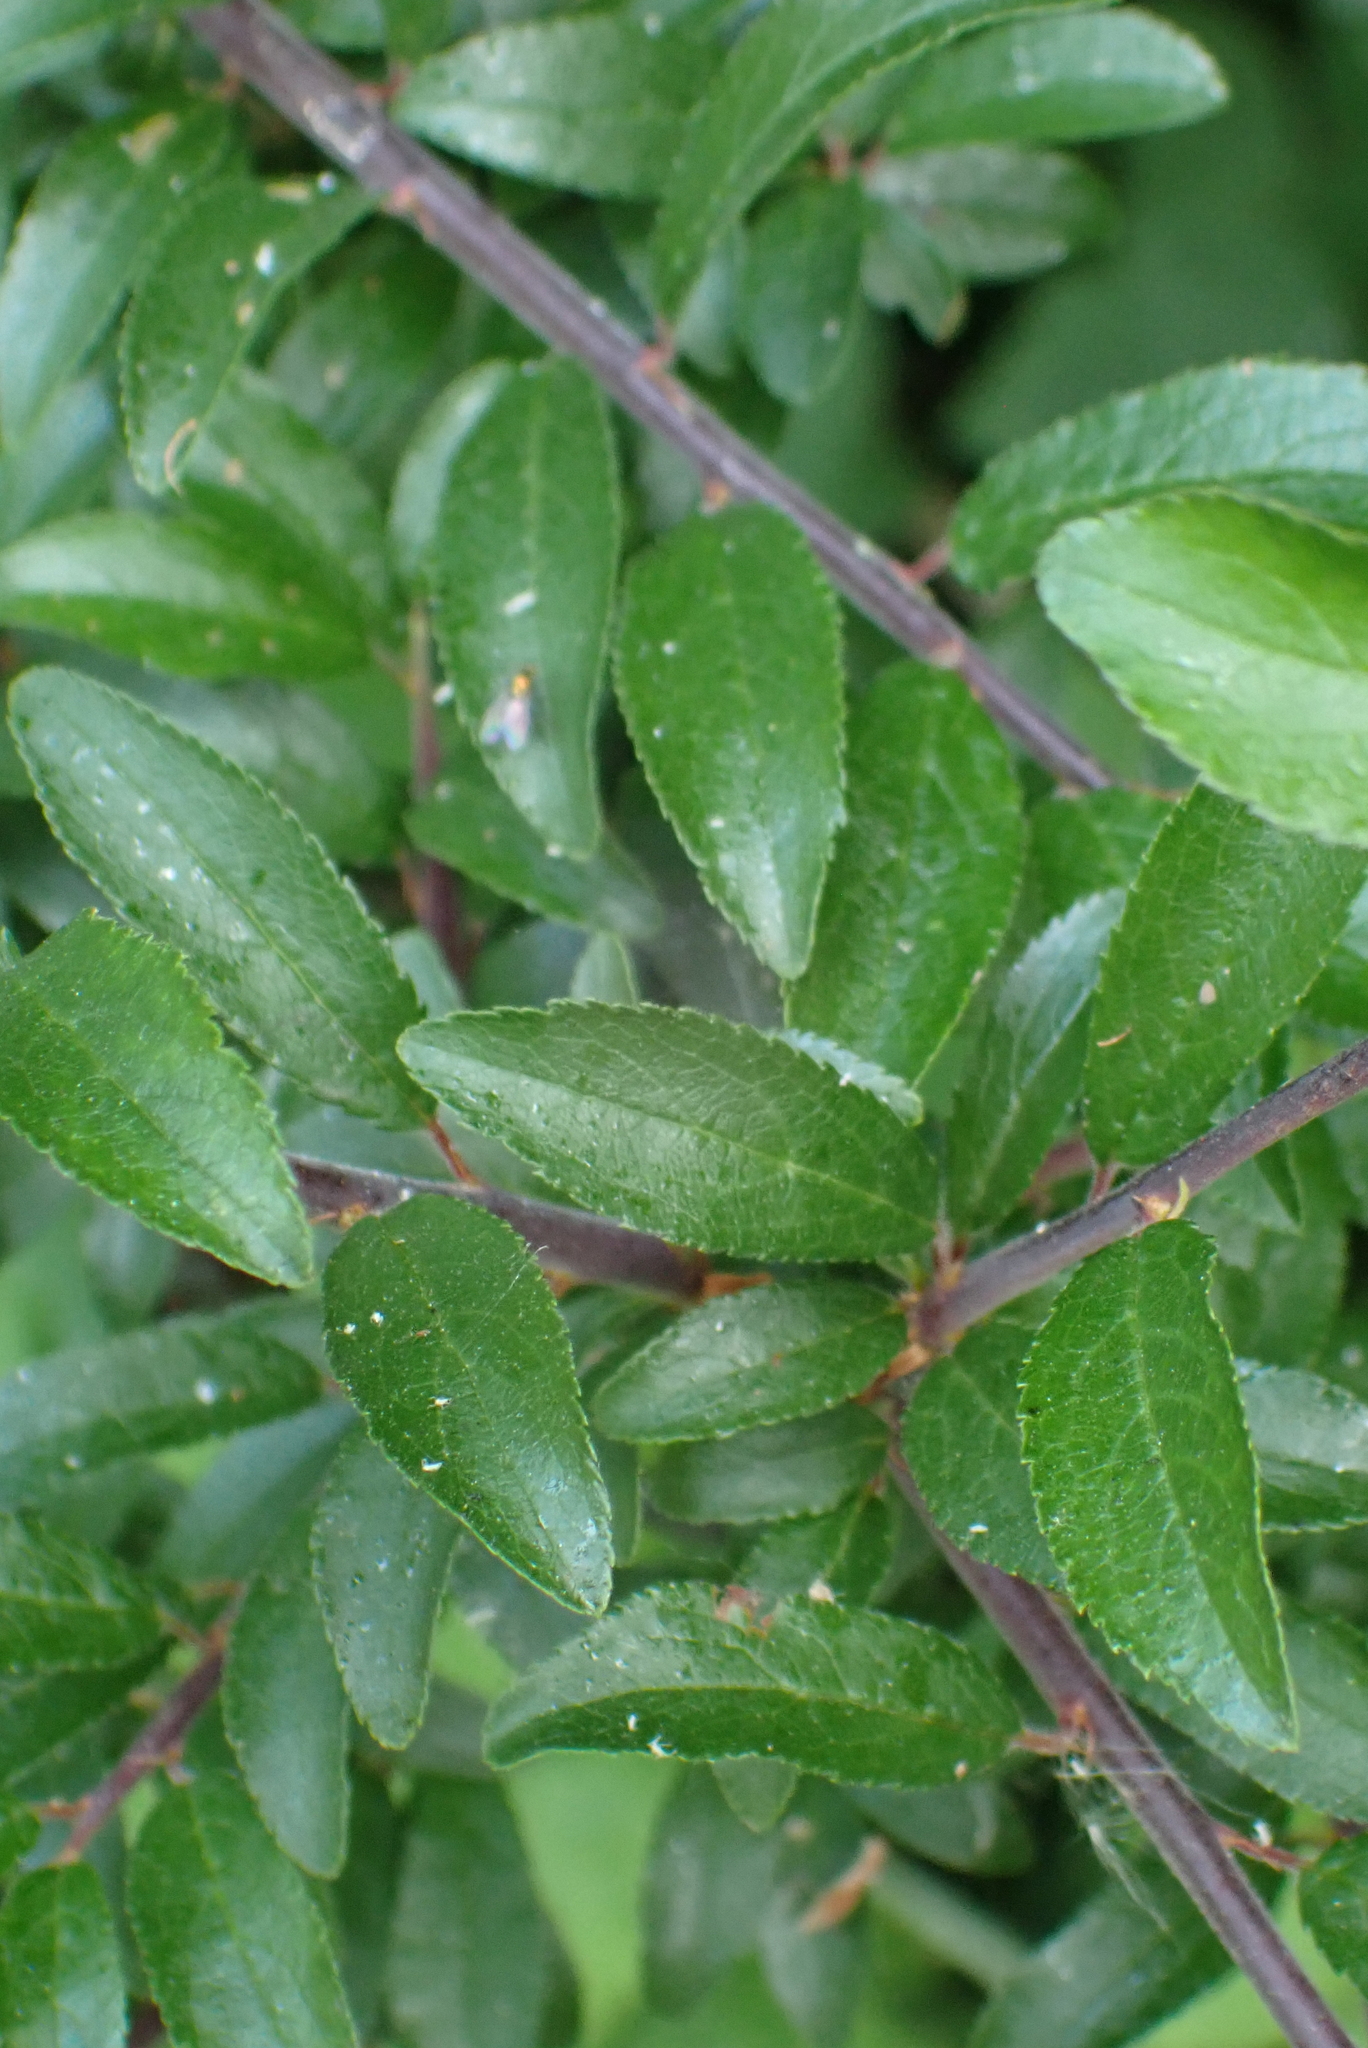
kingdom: Plantae
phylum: Tracheophyta
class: Magnoliopsida
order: Rosales
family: Rosaceae
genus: Prunus
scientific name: Prunus spinosa
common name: Blackthorn
